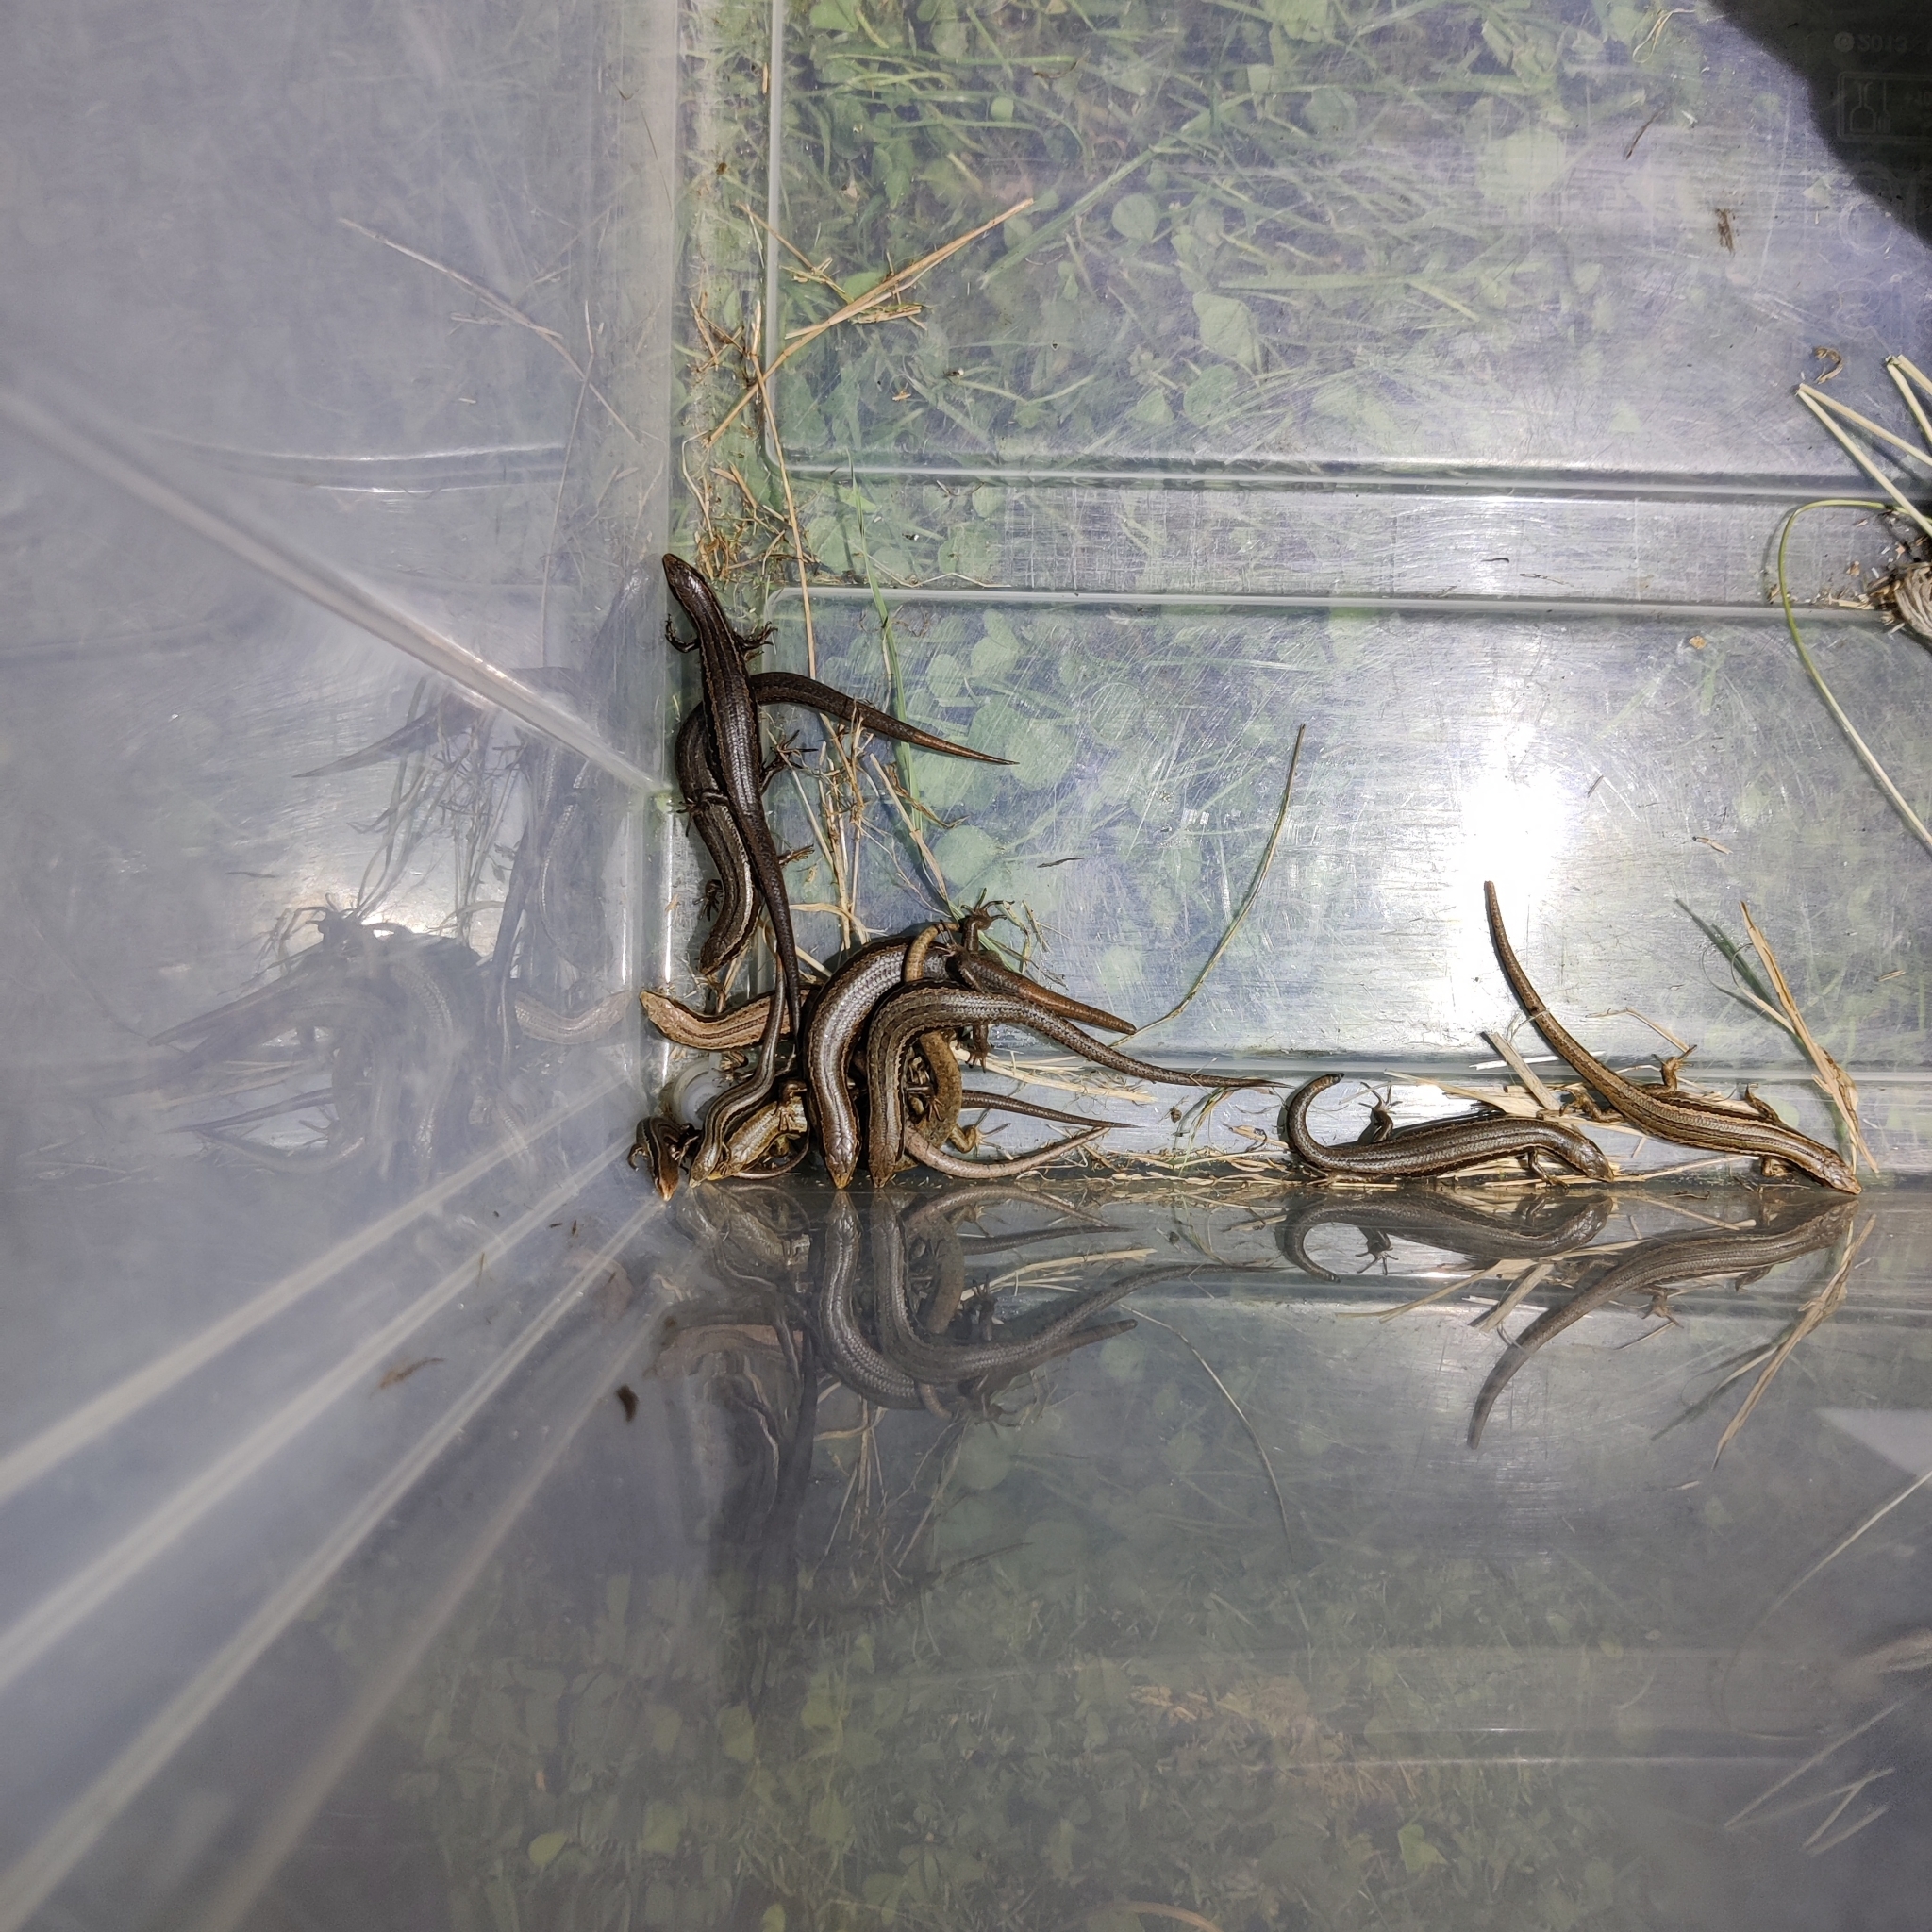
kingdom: Animalia
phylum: Chordata
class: Squamata
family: Scincidae
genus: Oligosoma
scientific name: Oligosoma polychroma
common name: Common new zealand skink
